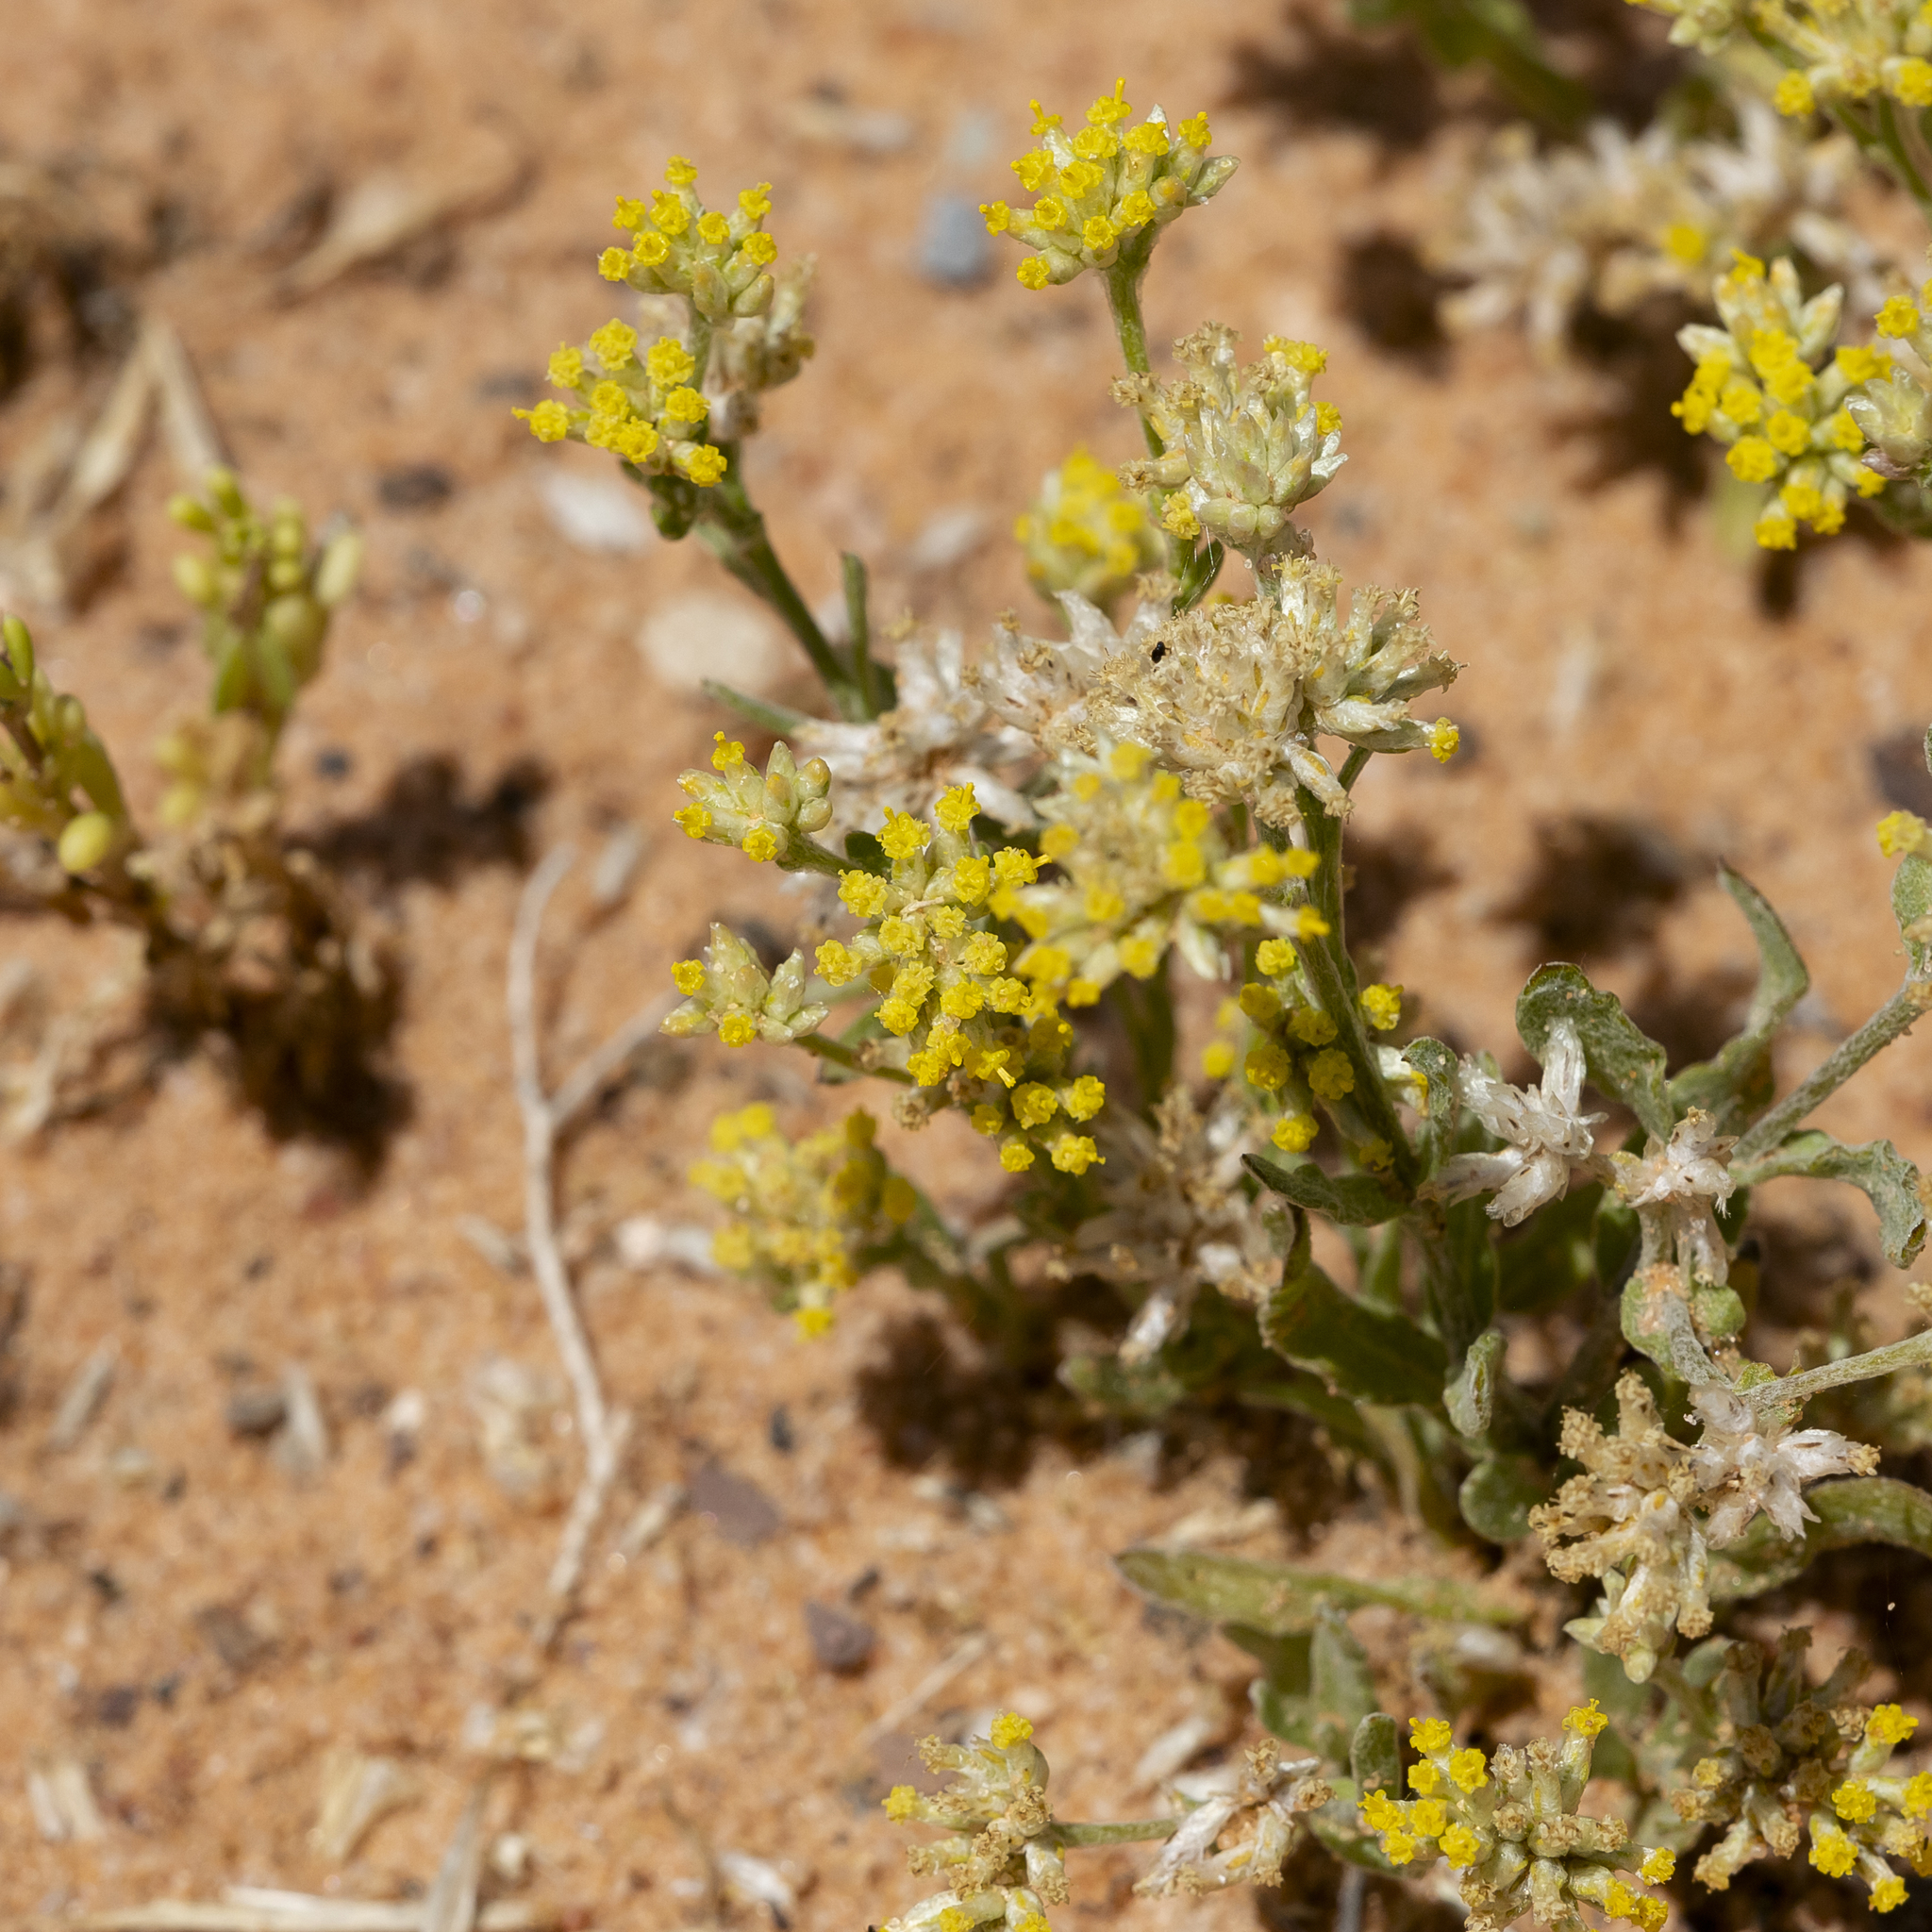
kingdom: Plantae
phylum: Tracheophyta
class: Magnoliopsida
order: Asterales
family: Asteraceae
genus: Rhodanthe
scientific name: Rhodanthe moschata
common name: Musk sunray
